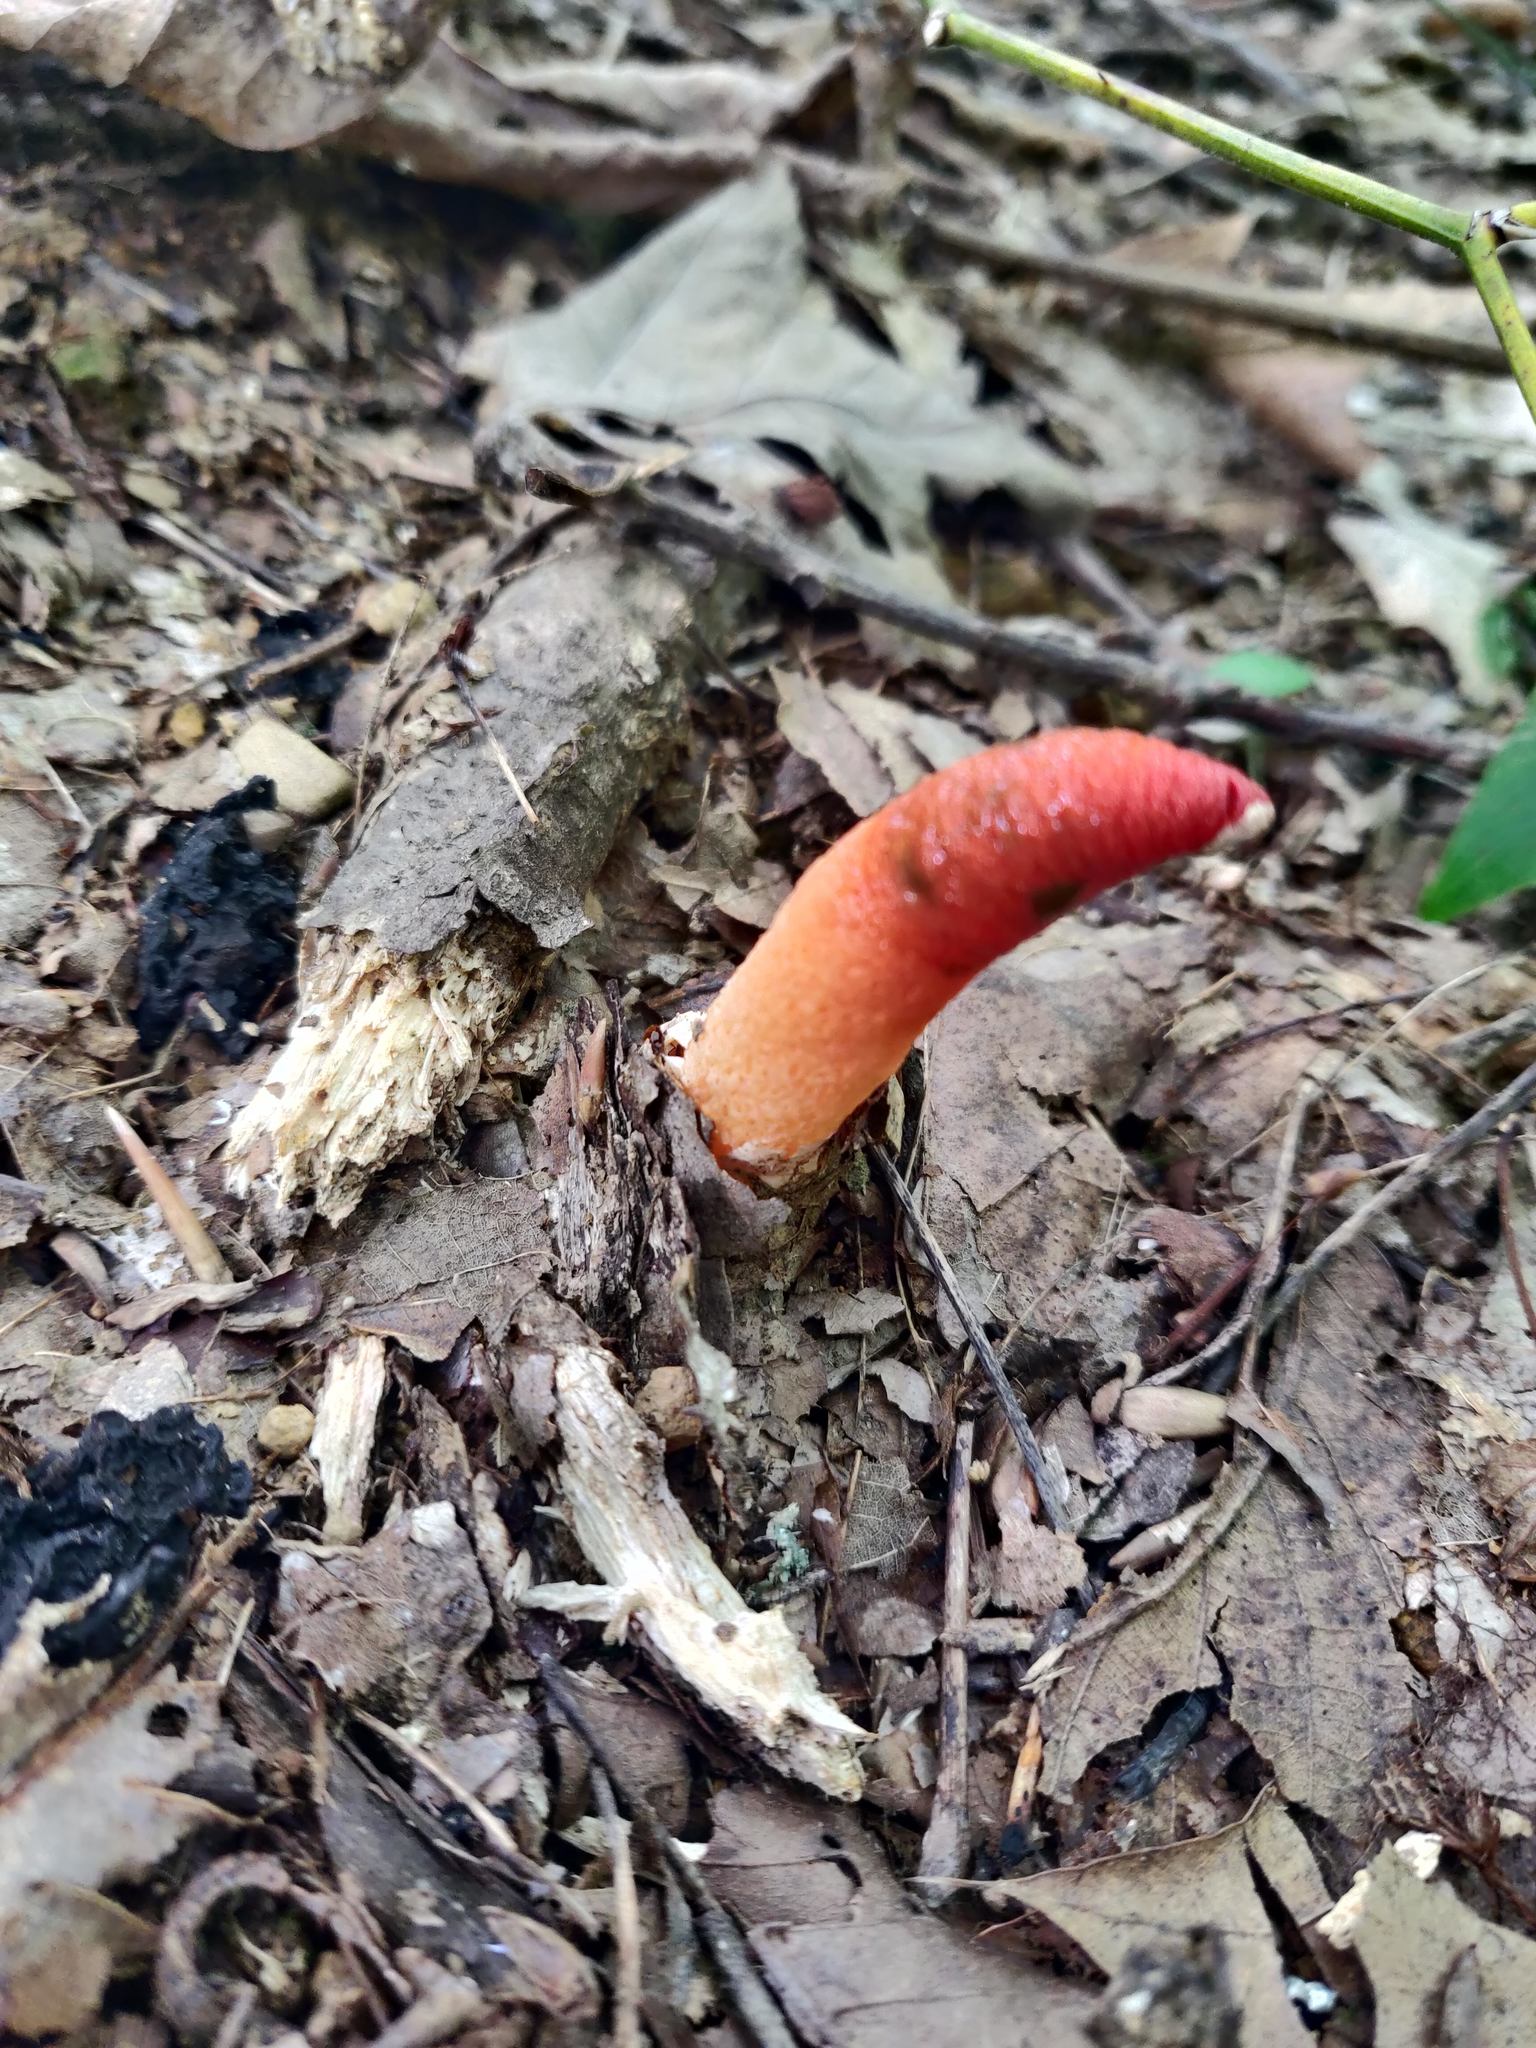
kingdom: Fungi
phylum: Basidiomycota
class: Agaricomycetes
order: Phallales
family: Phallaceae
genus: Mutinus
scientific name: Mutinus elegans
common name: Devil's dipstick
